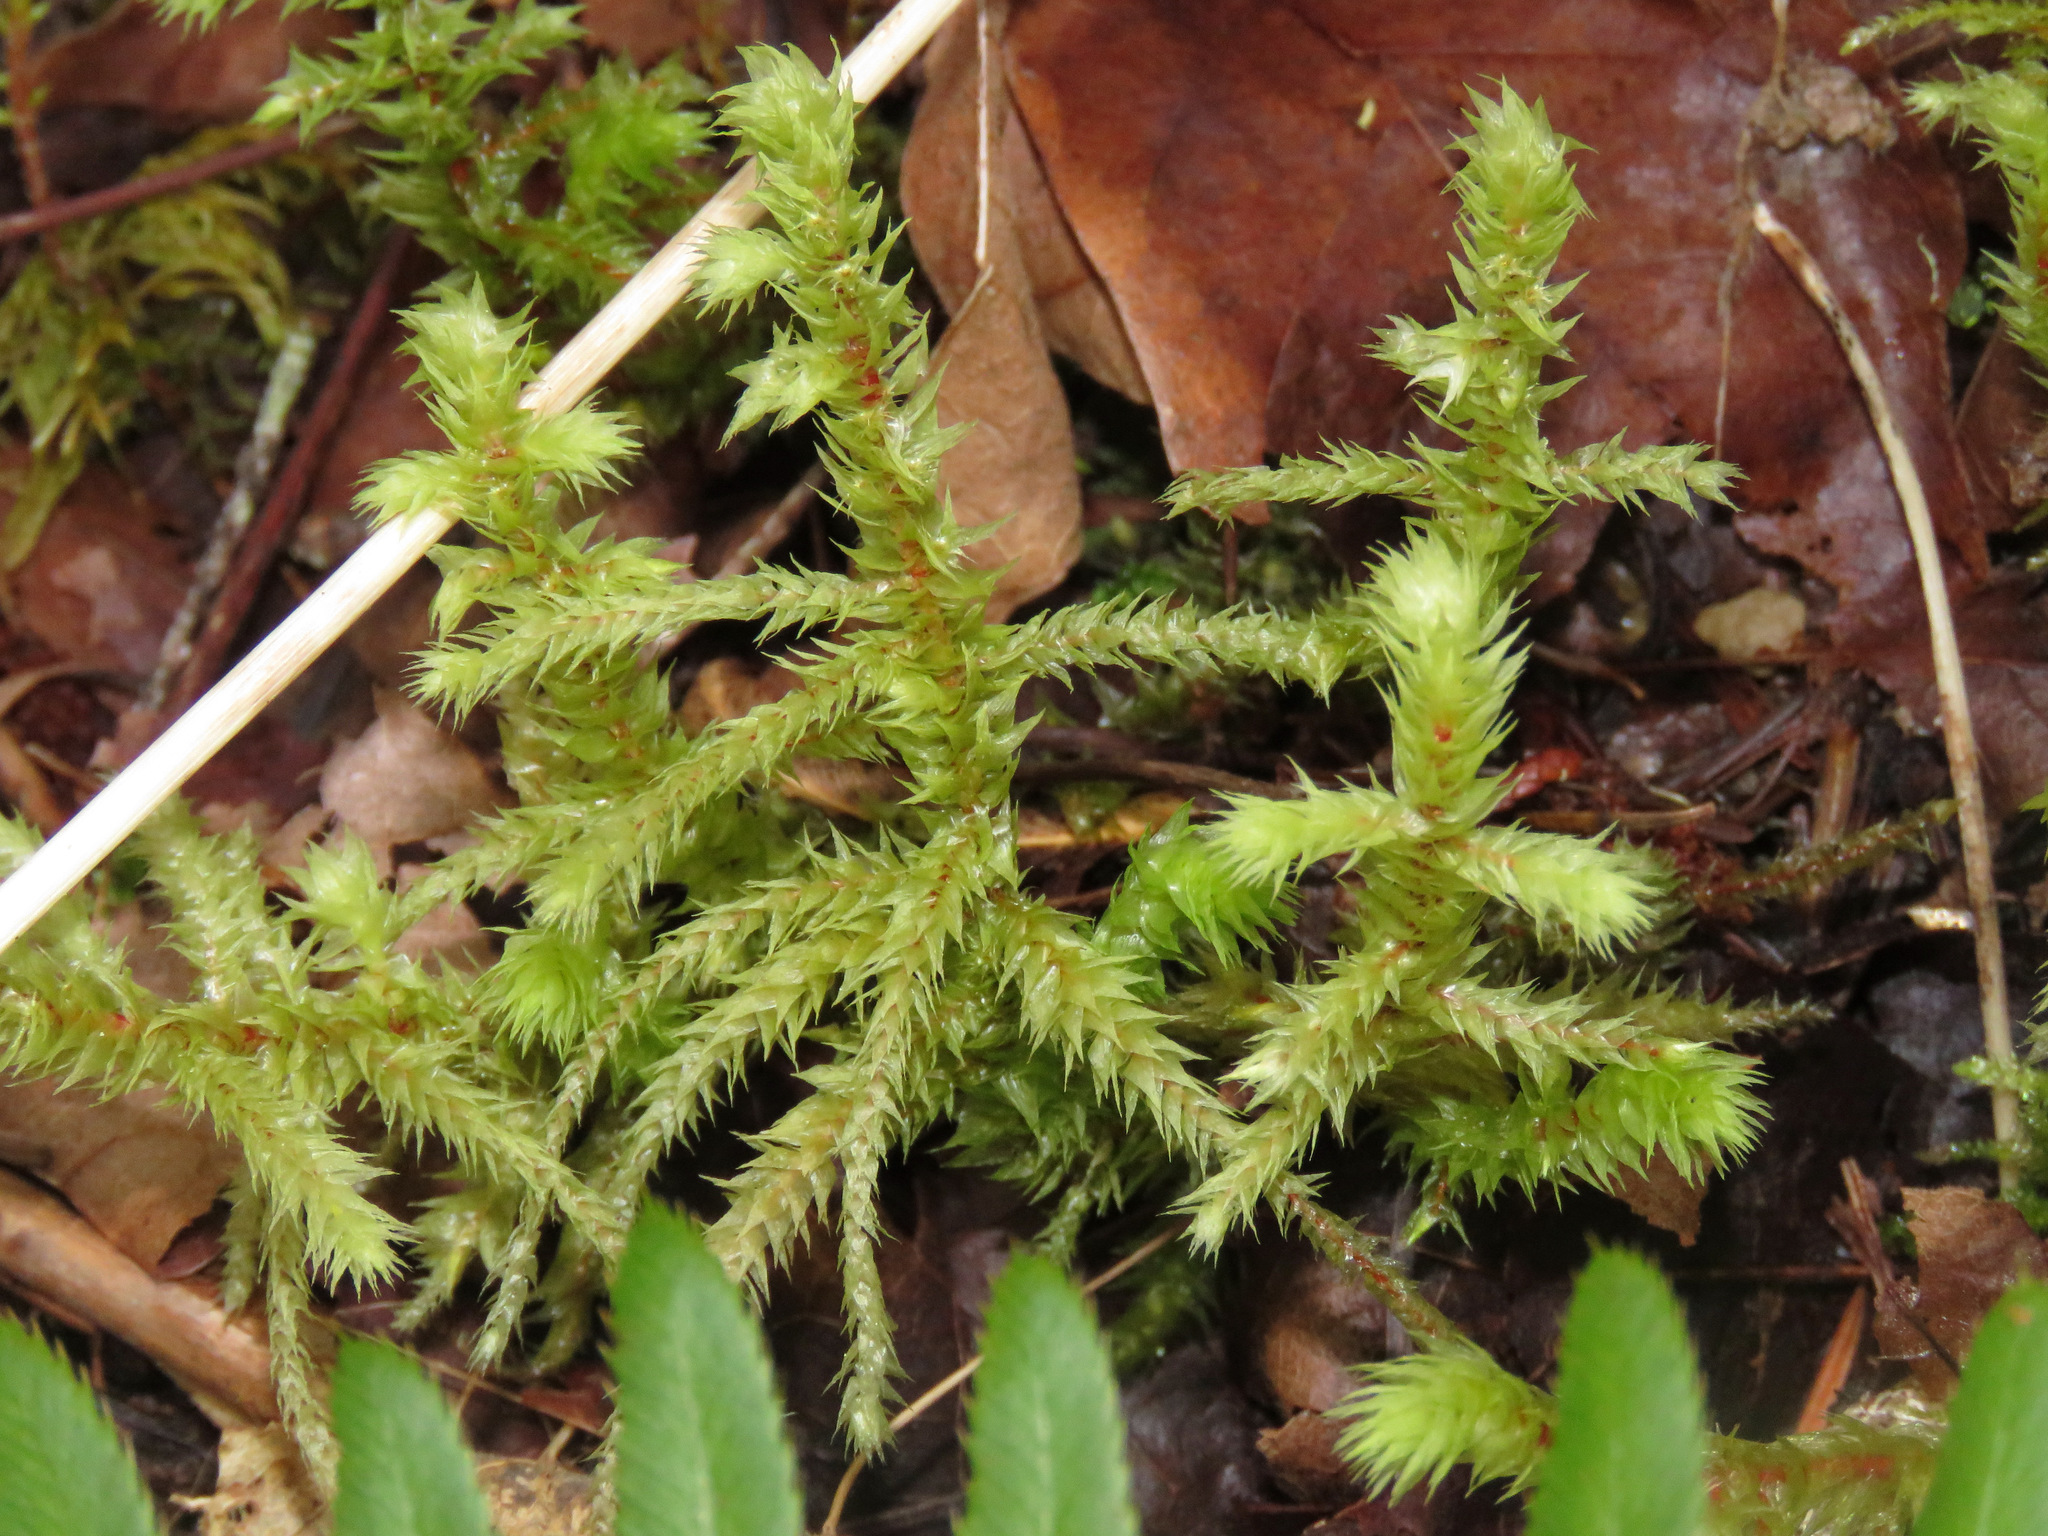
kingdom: Plantae
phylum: Bryophyta
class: Bryopsida
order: Hypnales
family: Hylocomiaceae
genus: Hylocomiadelphus
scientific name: Hylocomiadelphus triquetrus
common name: Rough goose neck moss
